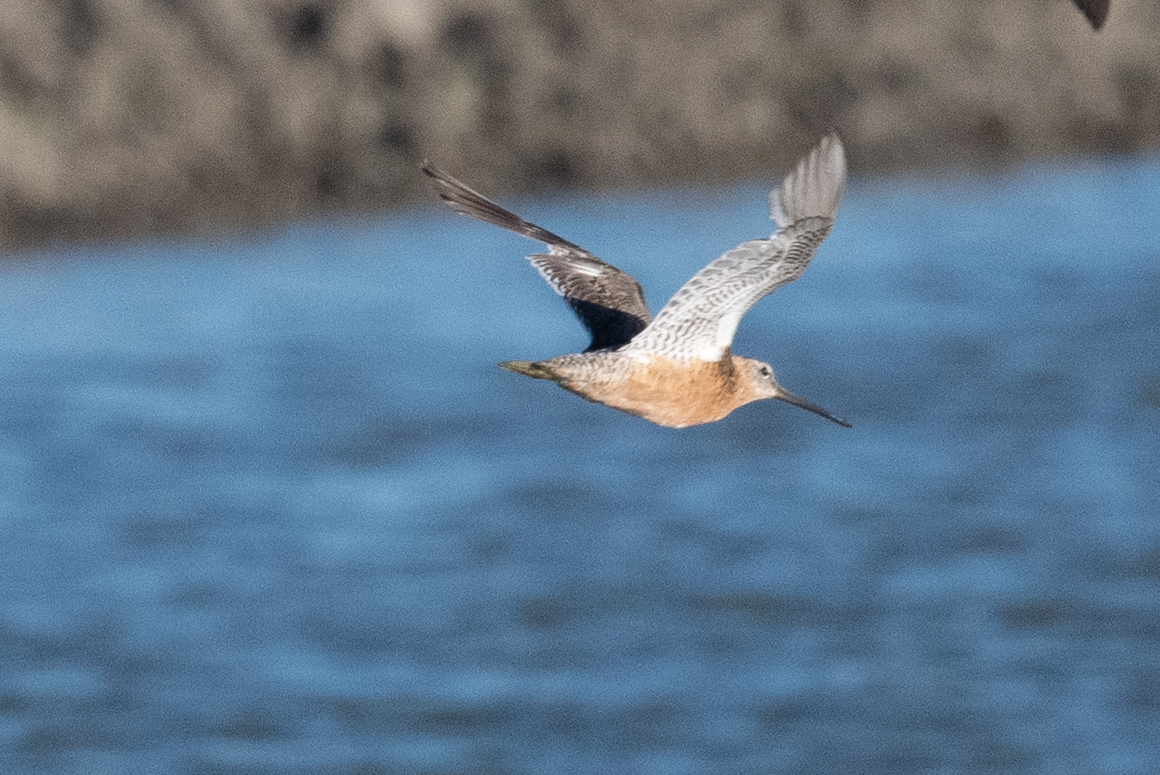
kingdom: Animalia
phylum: Chordata
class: Aves
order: Charadriiformes
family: Scolopacidae
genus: Limnodromus
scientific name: Limnodromus scolopaceus
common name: Long-billed dowitcher
